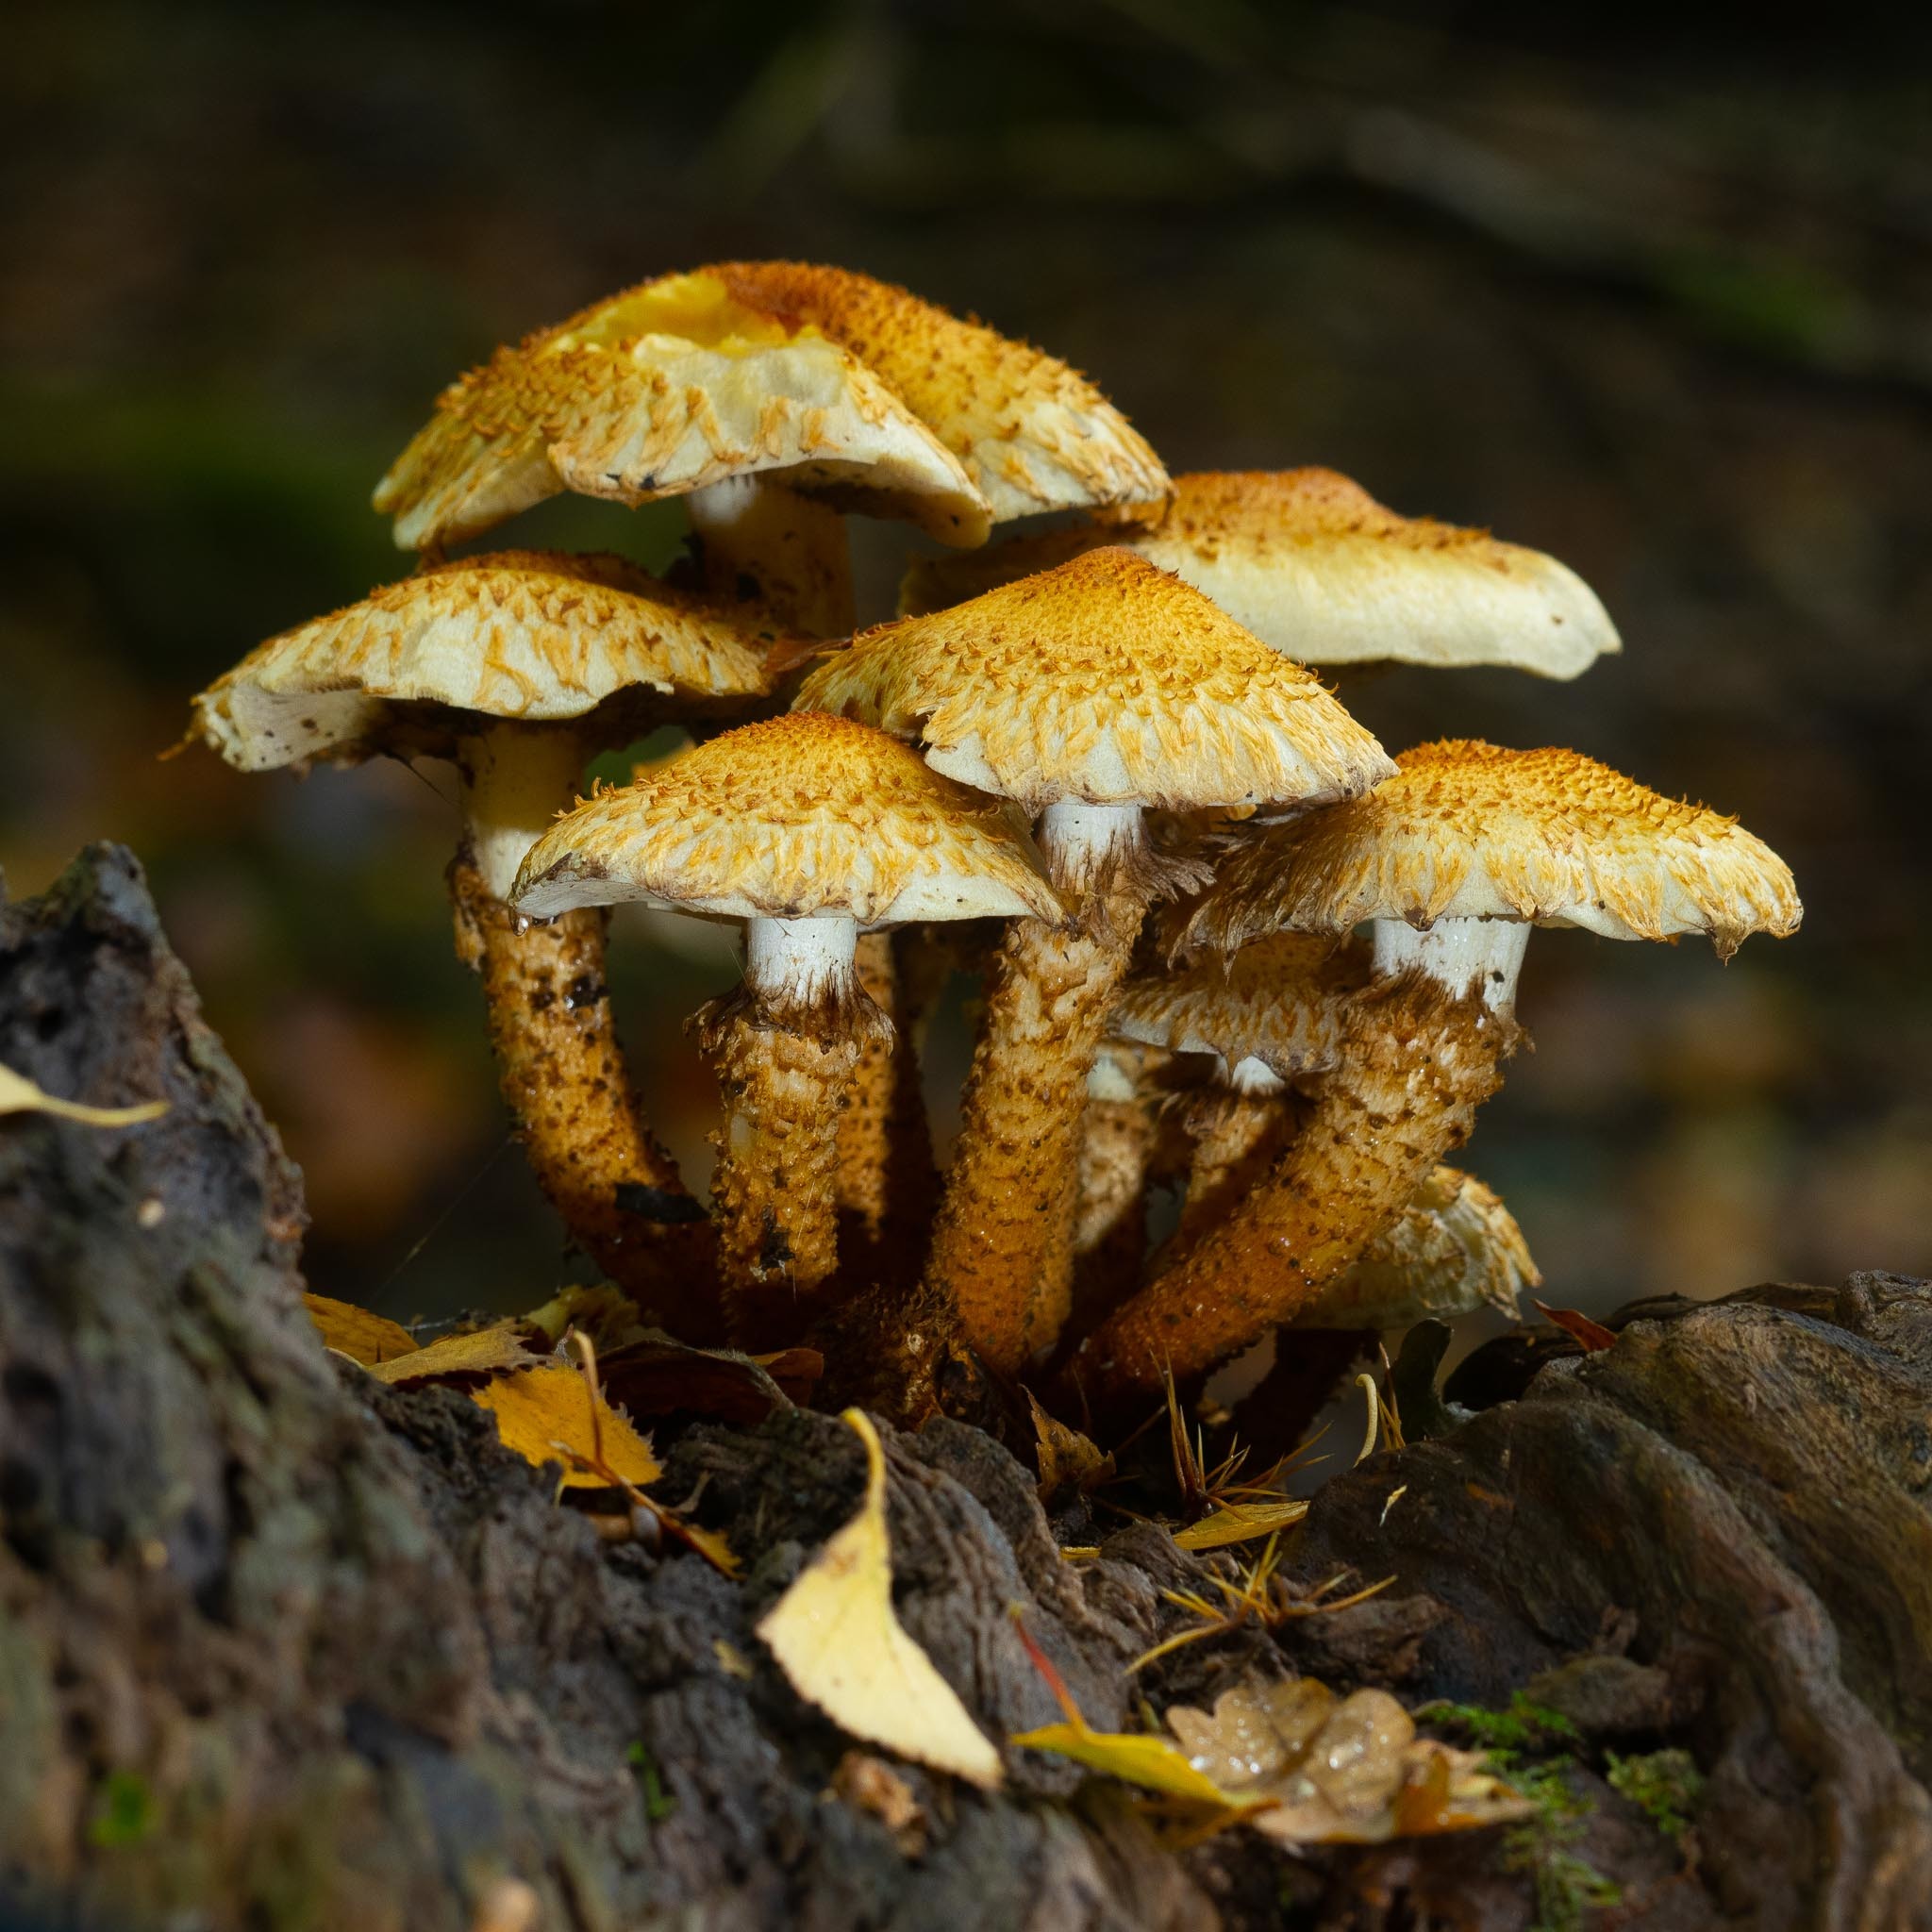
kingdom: Fungi
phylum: Basidiomycota
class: Agaricomycetes
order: Agaricales
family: Strophariaceae
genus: Pholiota
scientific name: Pholiota squarrosa
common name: Shaggy pholiota
